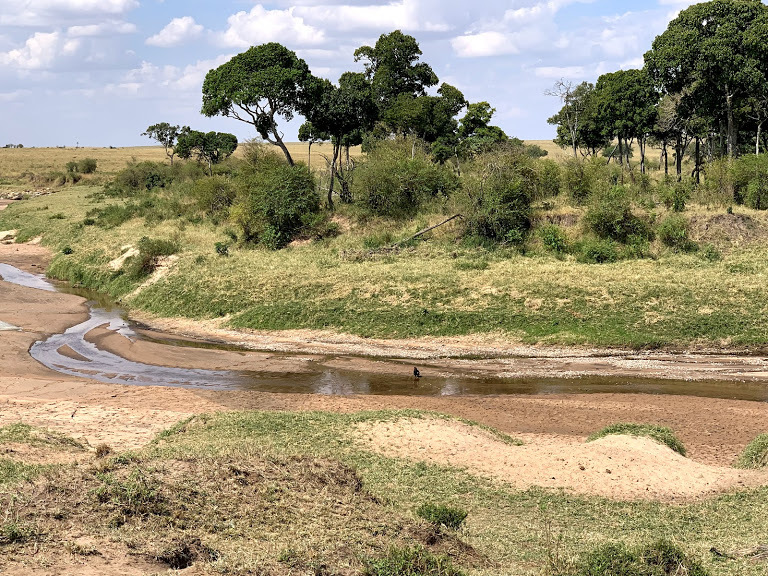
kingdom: Animalia
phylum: Chordata
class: Aves
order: Accipitriformes
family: Accipitridae
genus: Terathopius
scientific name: Terathopius ecaudatus
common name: Bateleur
